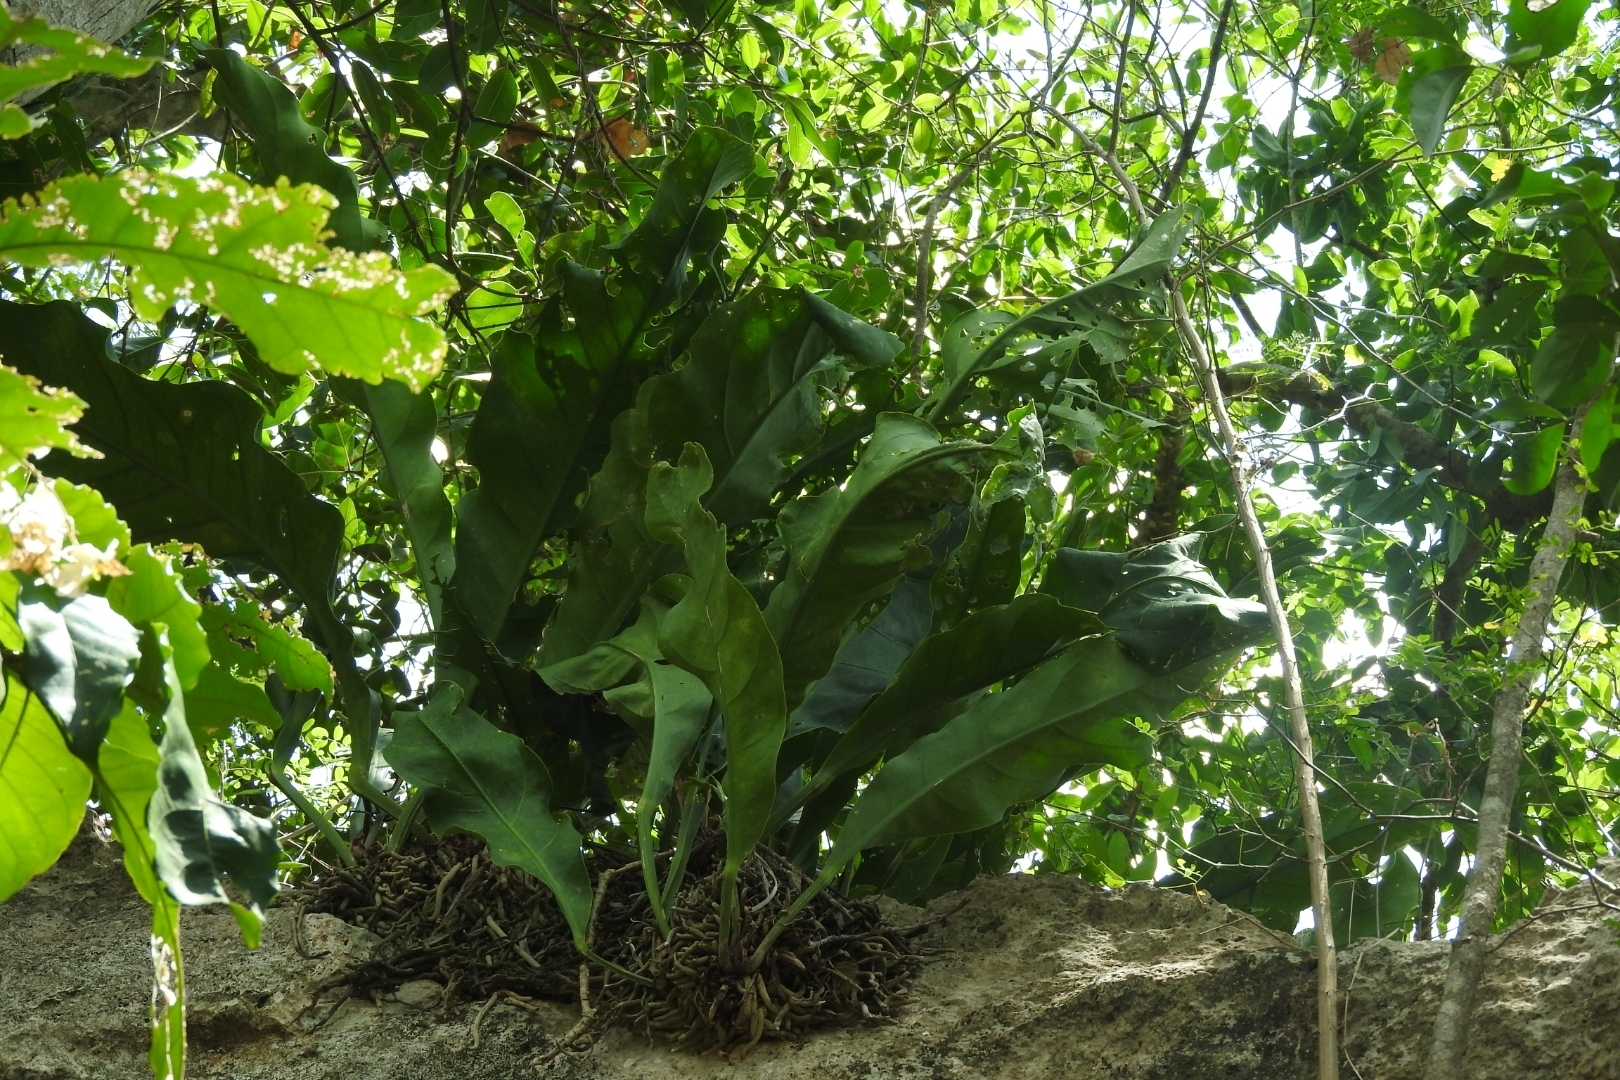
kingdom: Plantae
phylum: Tracheophyta
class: Liliopsida
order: Alismatales
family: Araceae
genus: Anthurium
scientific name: Anthurium schlechtendalii
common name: Laceleaf
